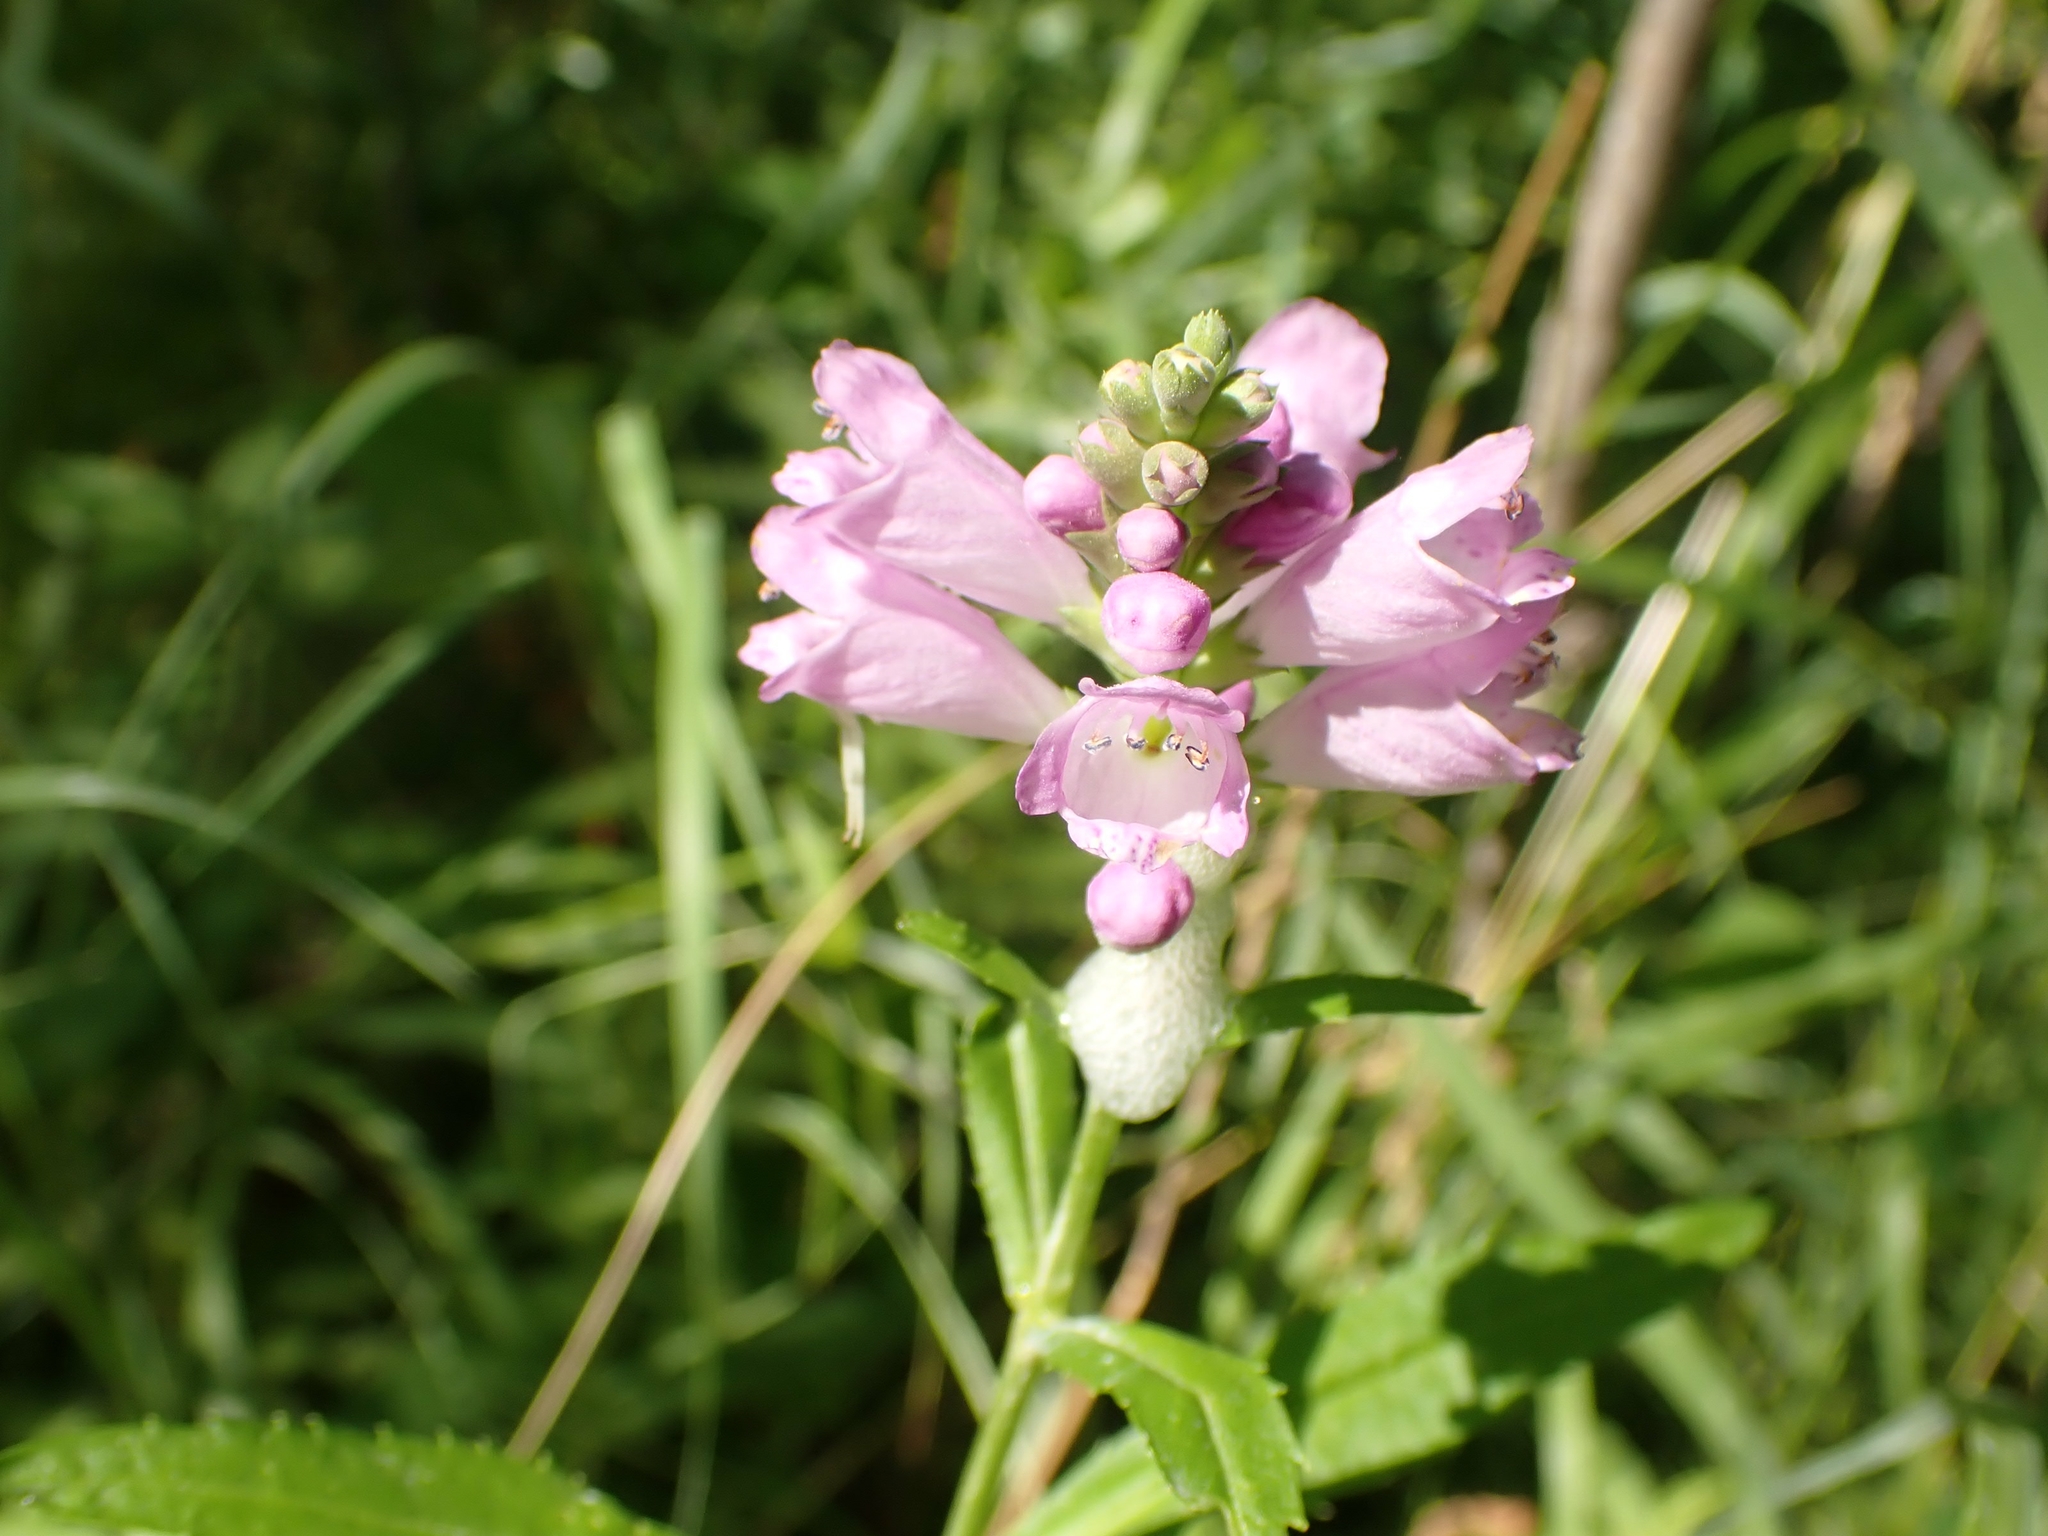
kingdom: Plantae
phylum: Tracheophyta
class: Magnoliopsida
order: Lamiales
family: Lamiaceae
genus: Physostegia
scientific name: Physostegia virginiana
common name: Obedient-plant
